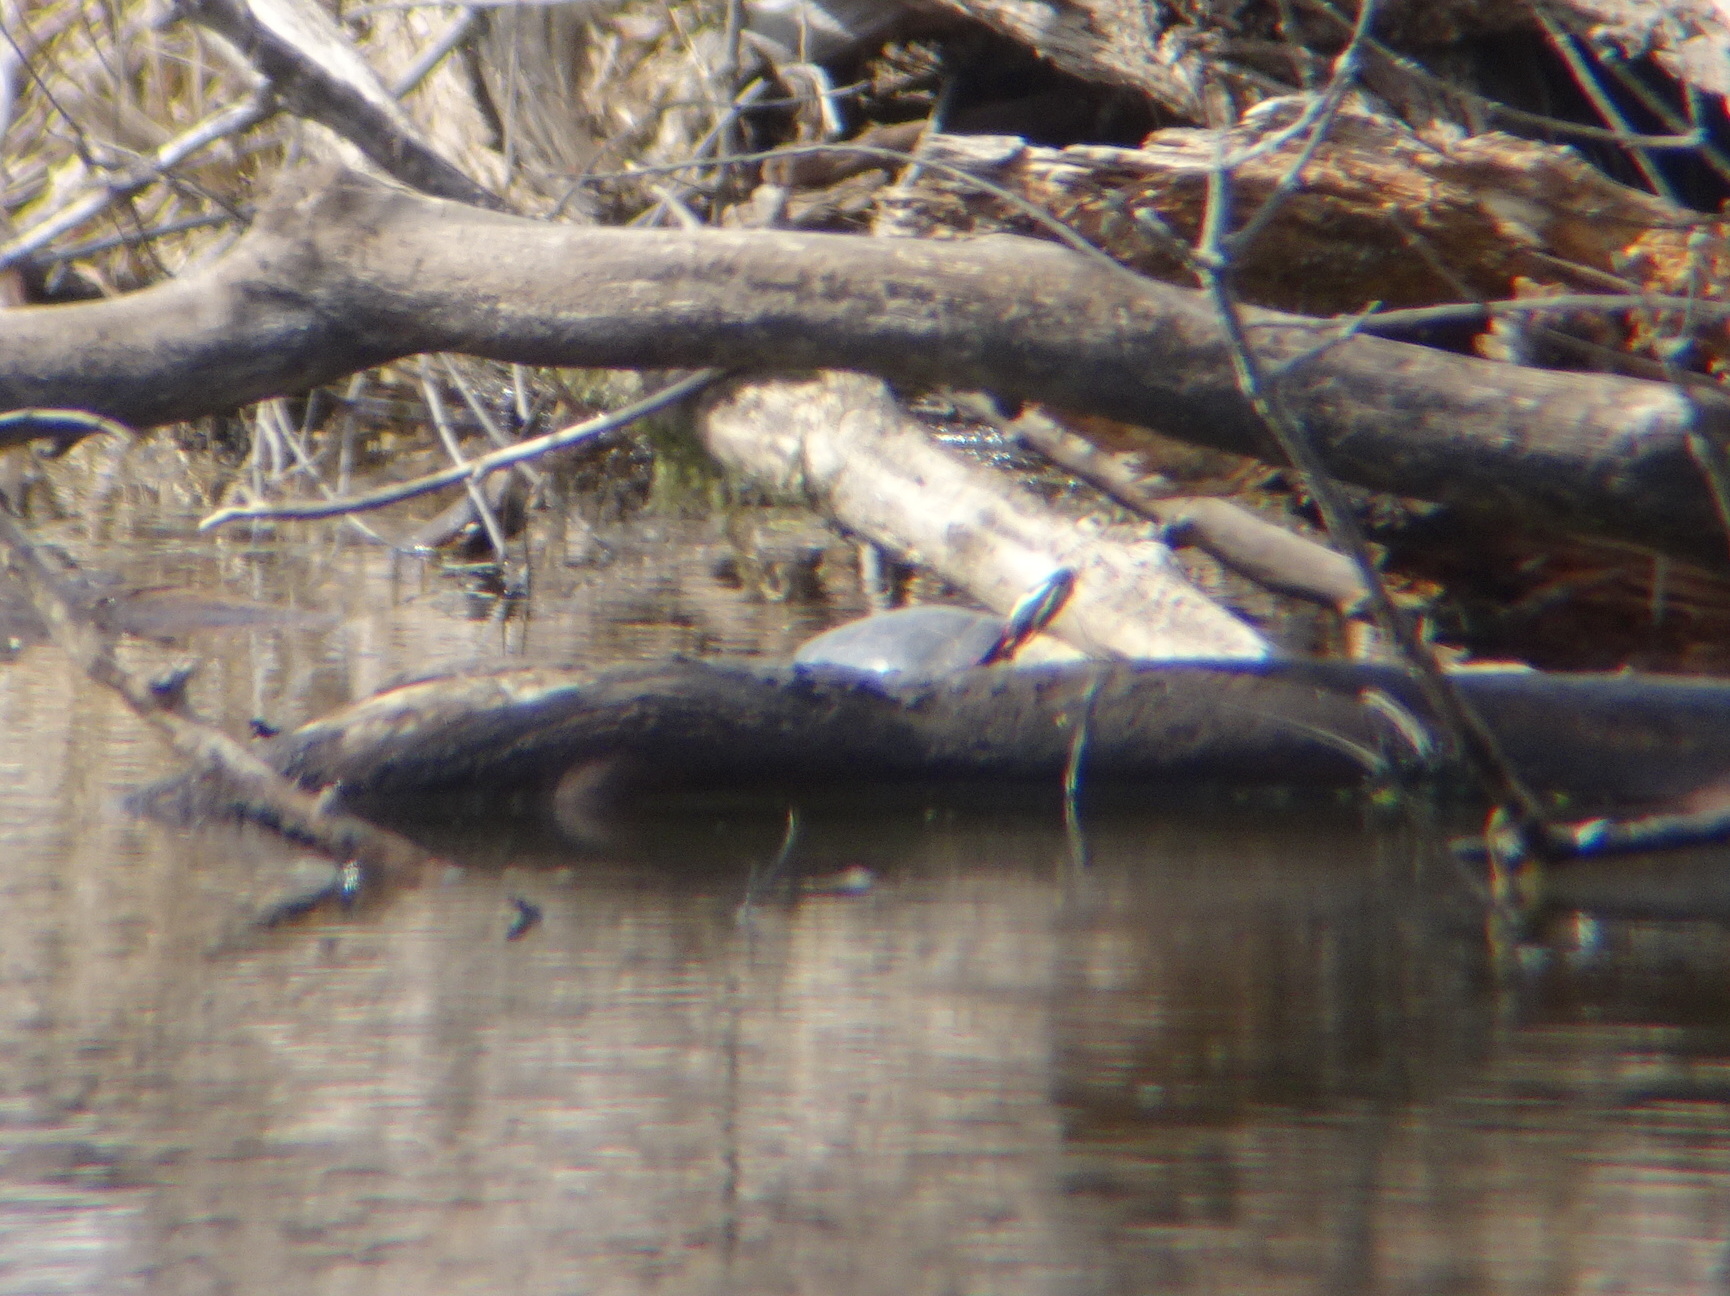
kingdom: Animalia
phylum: Chordata
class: Testudines
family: Emydidae
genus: Chrysemys
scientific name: Chrysemys picta
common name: Painted turtle
